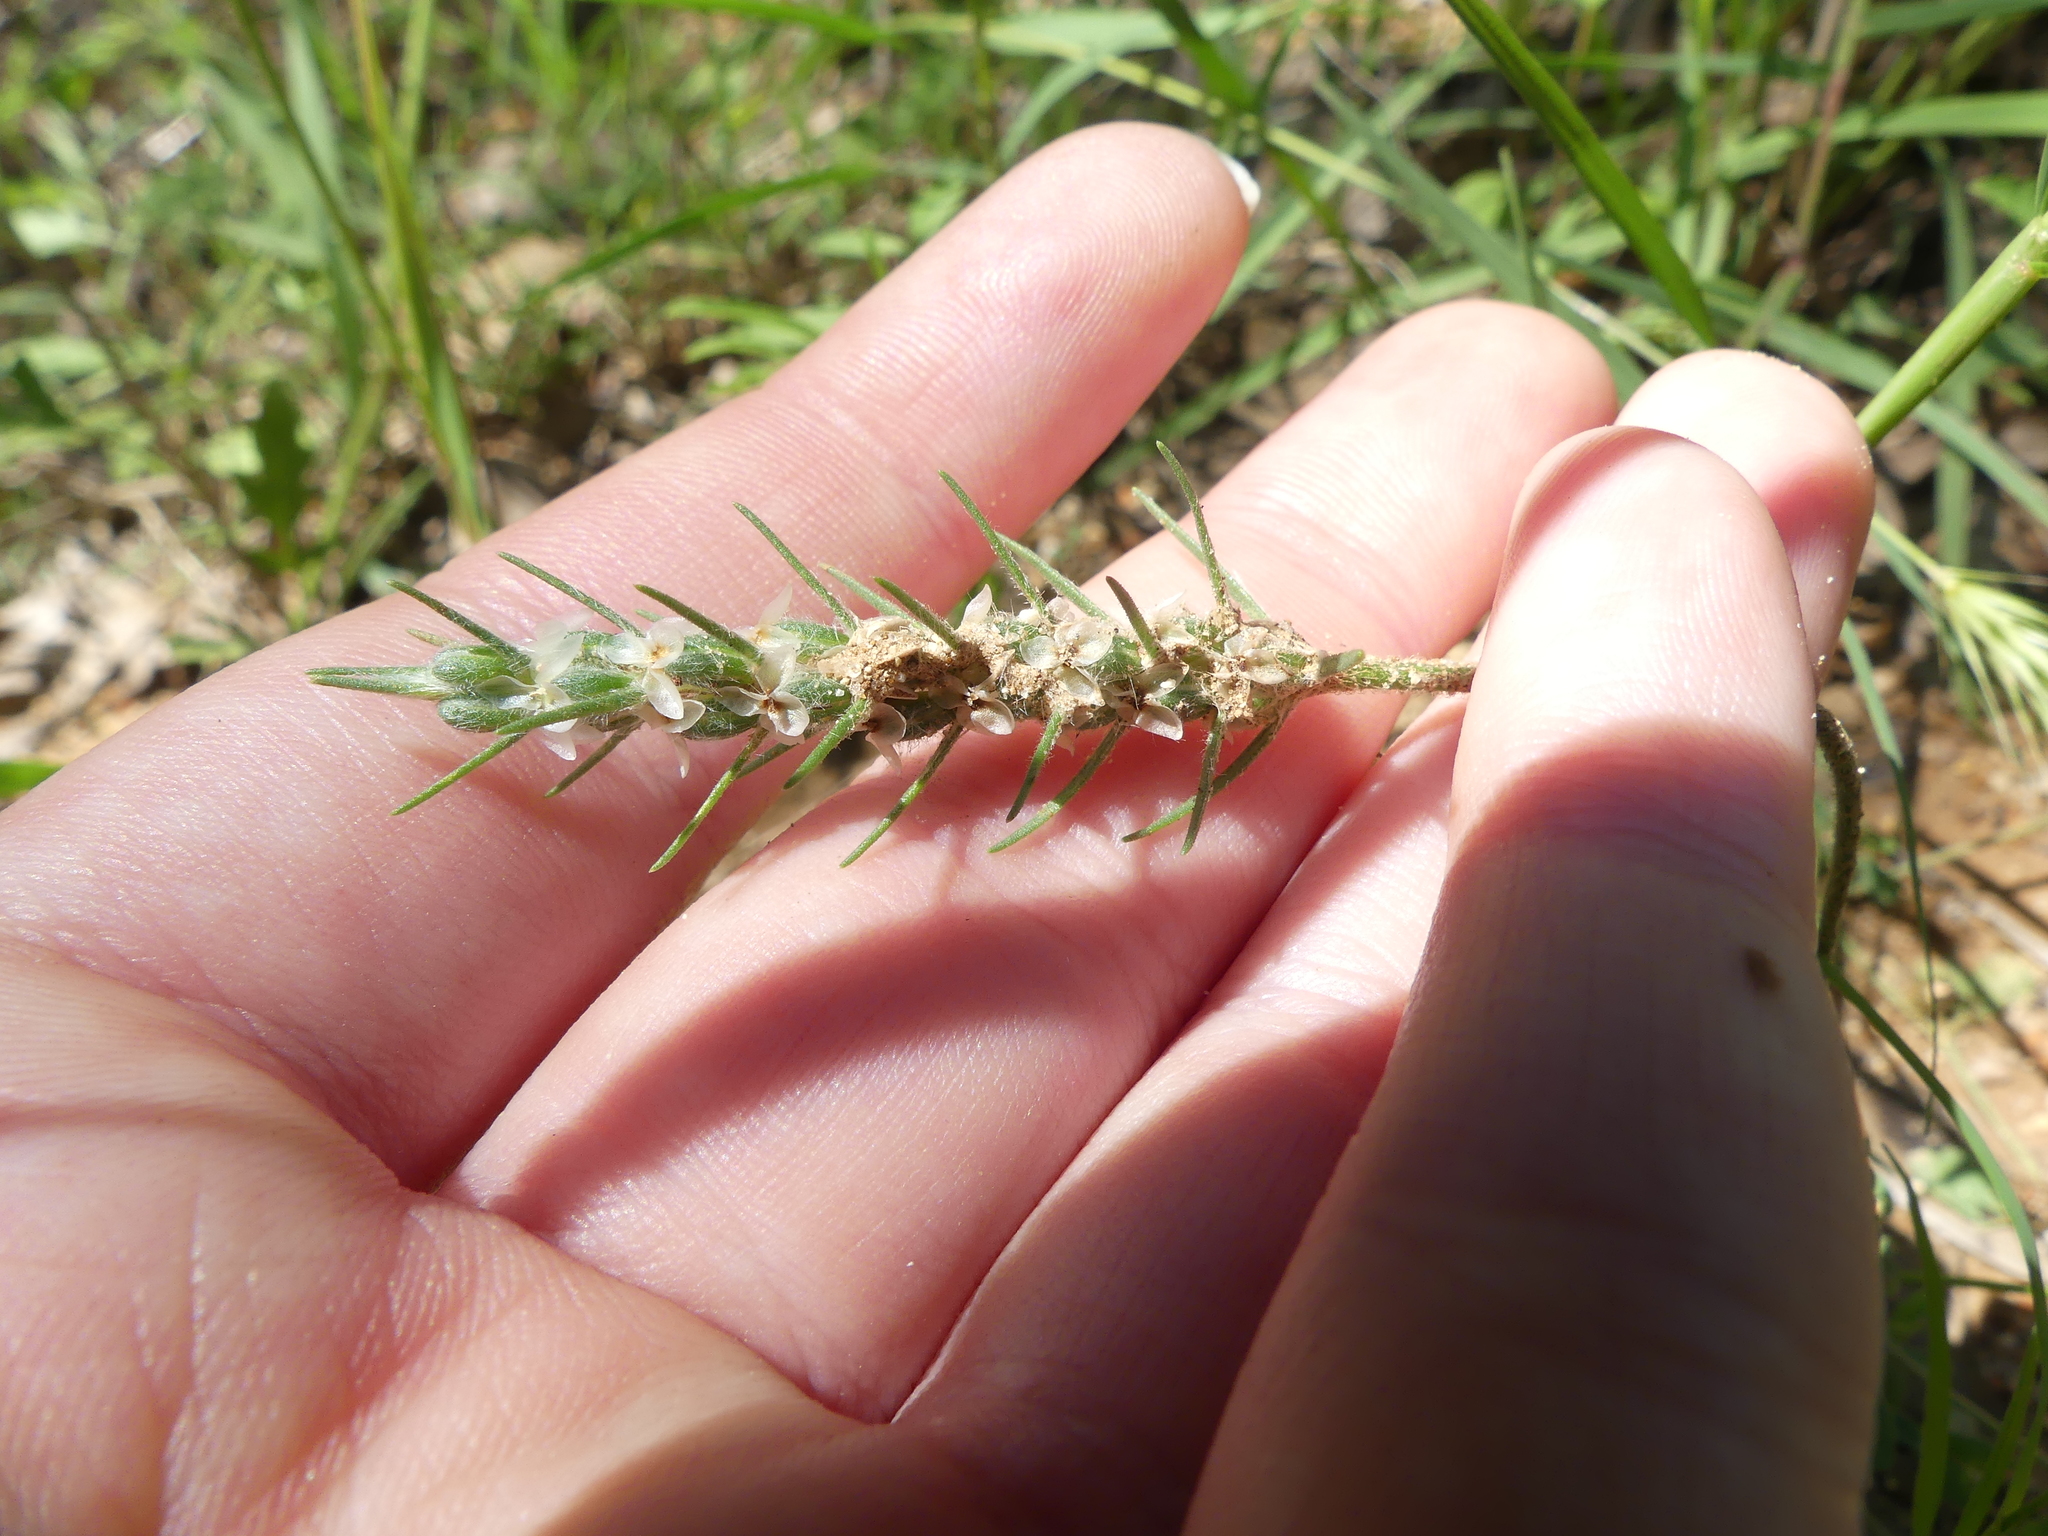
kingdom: Plantae
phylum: Tracheophyta
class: Magnoliopsida
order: Lamiales
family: Plantaginaceae
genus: Plantago
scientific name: Plantago aristata
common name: Bracted plantain
